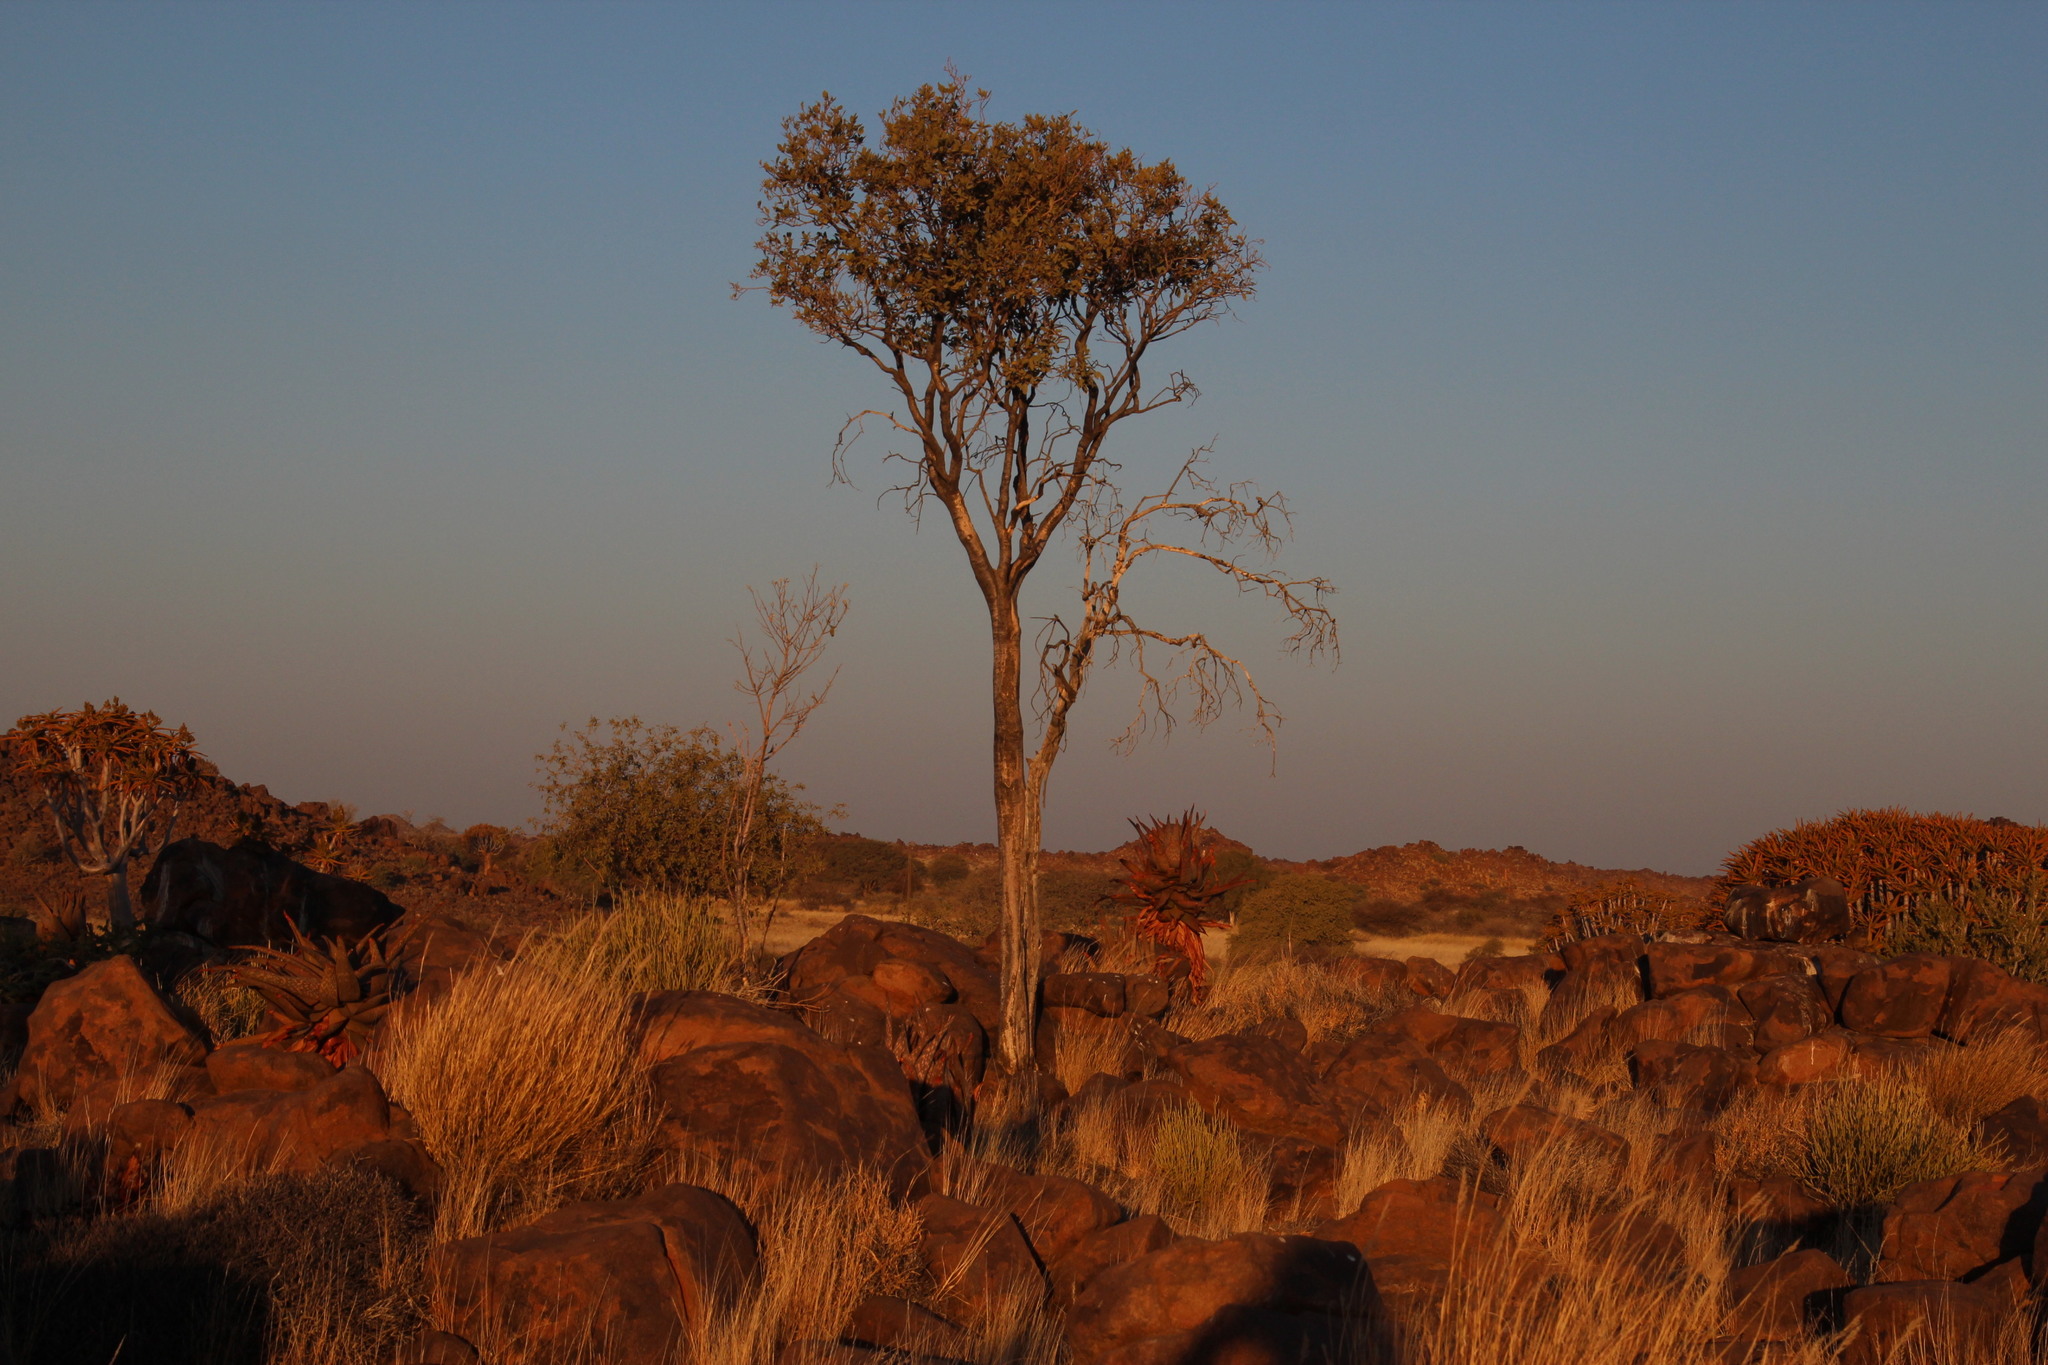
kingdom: Plantae
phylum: Tracheophyta
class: Magnoliopsida
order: Brassicales
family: Capparaceae
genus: Maerua
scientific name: Maerua schinzii
